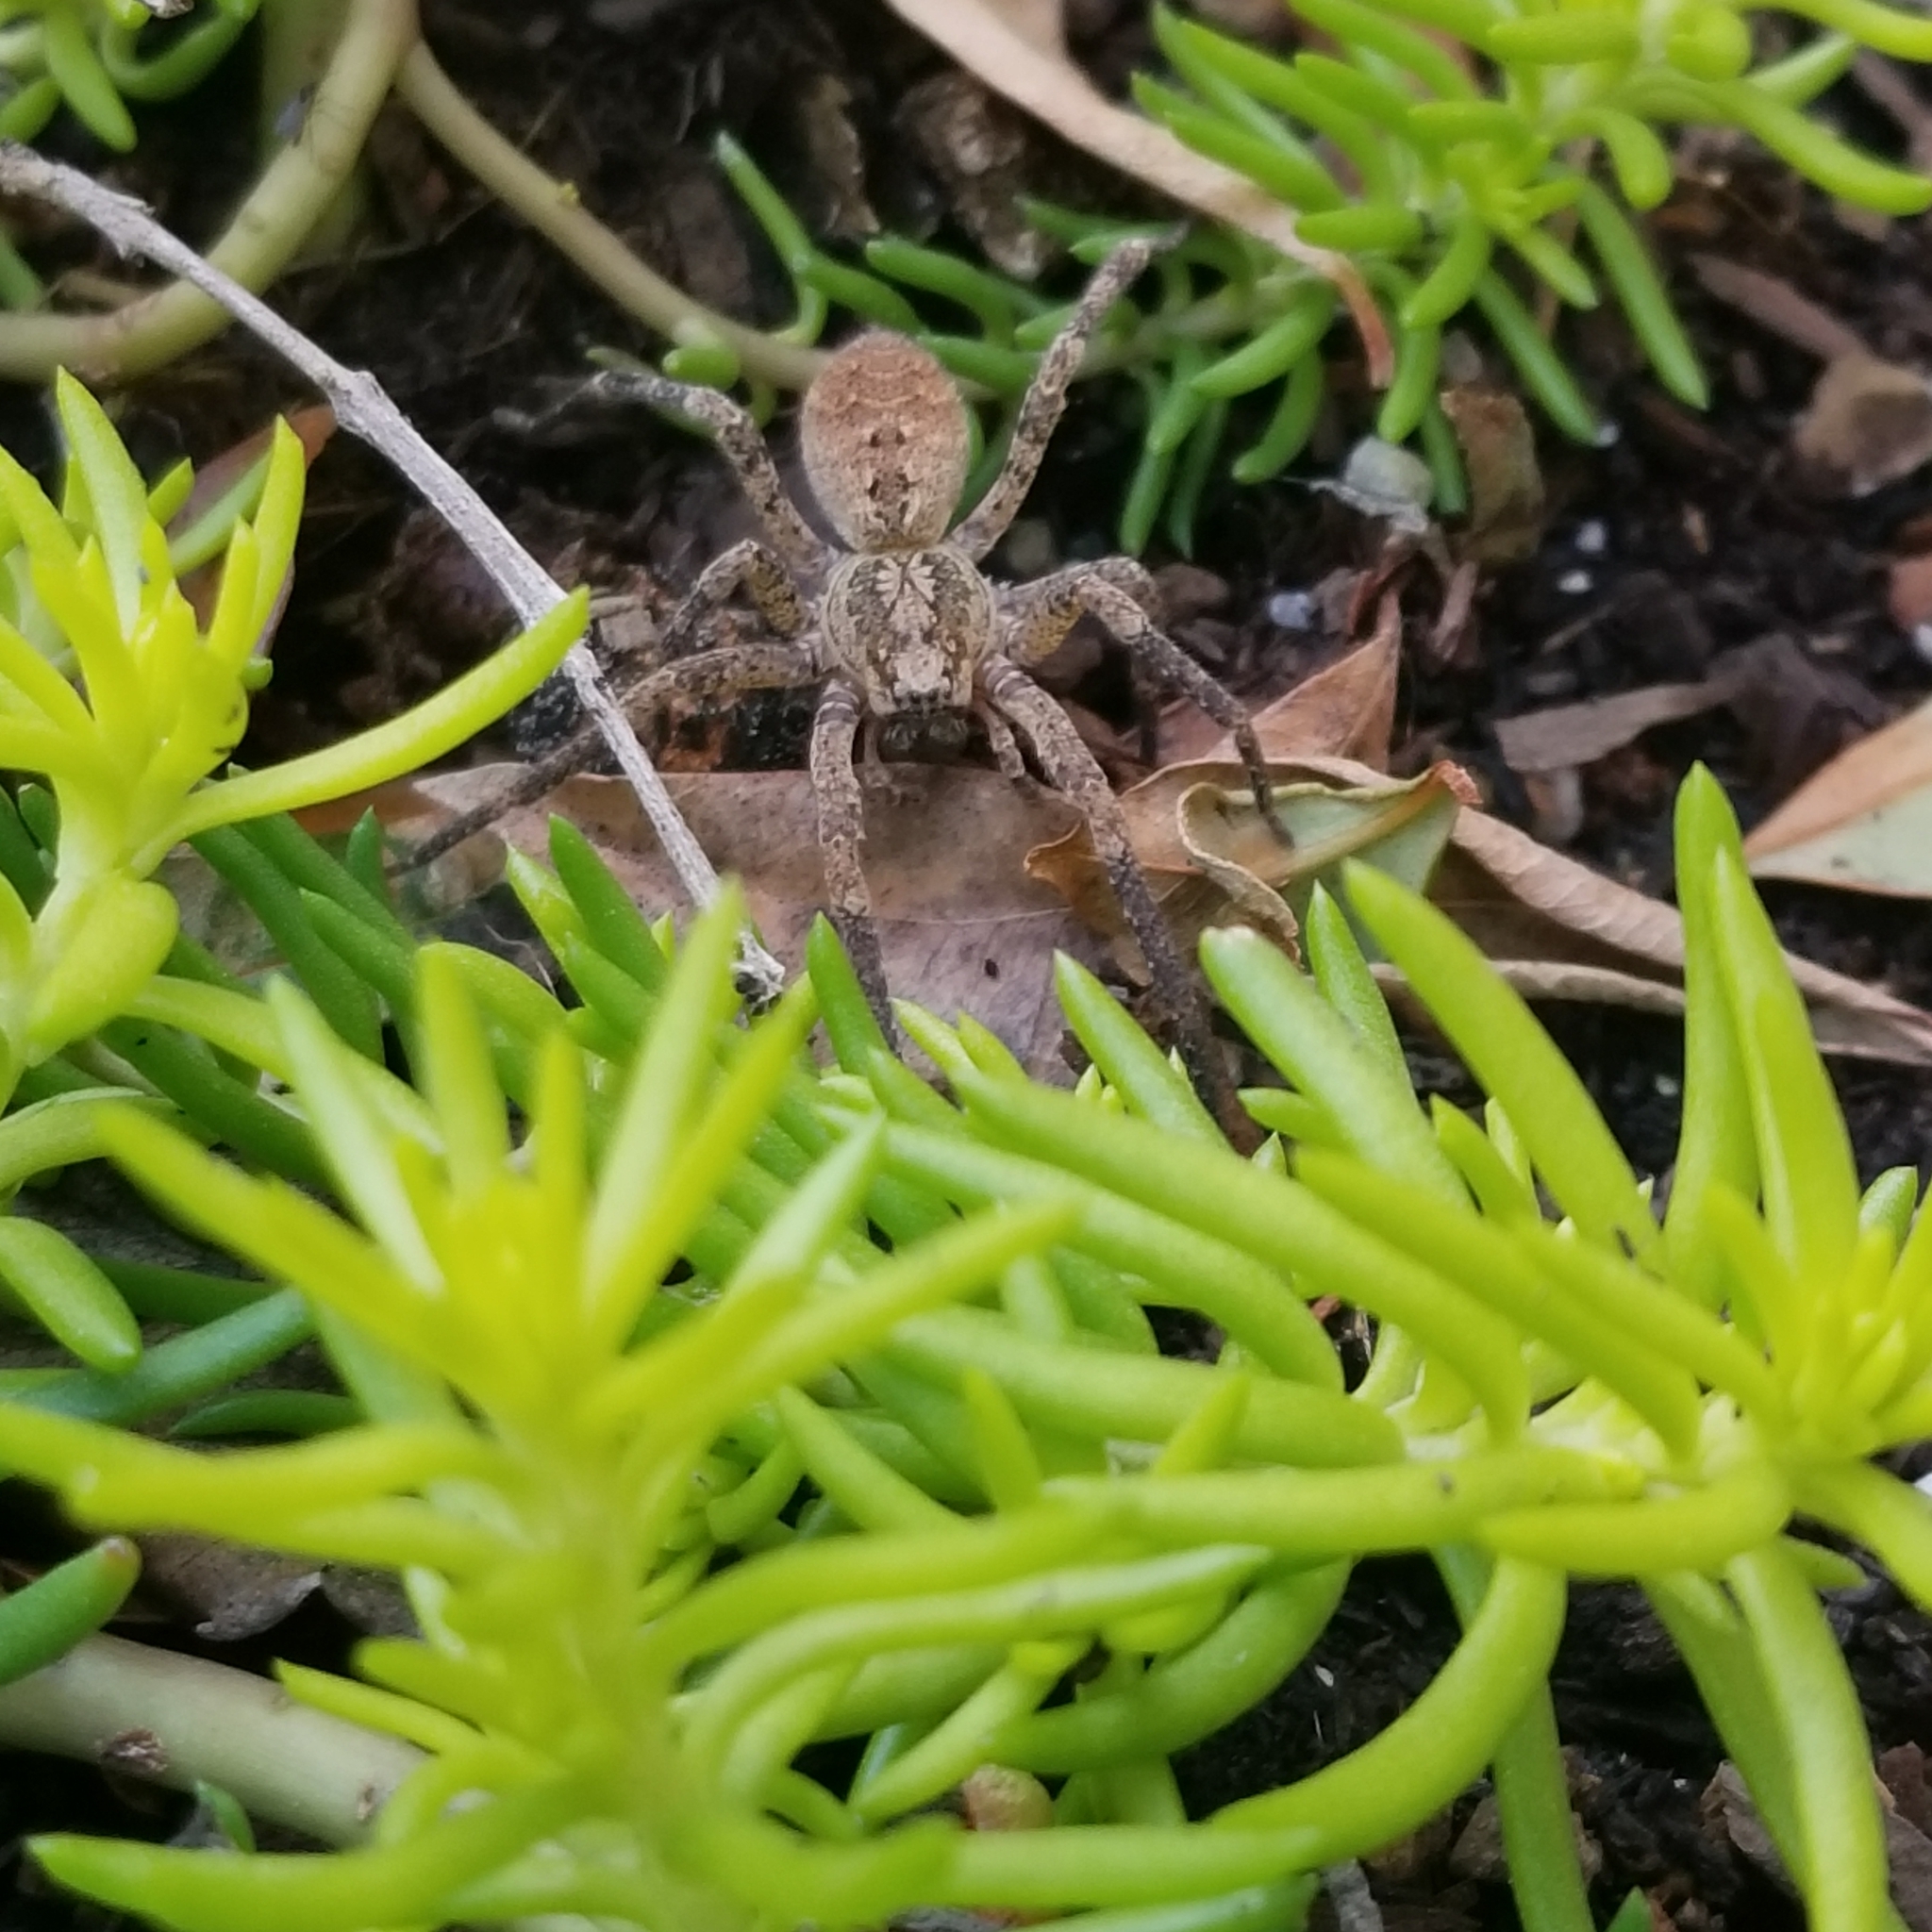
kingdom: Animalia
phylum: Arthropoda
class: Arachnida
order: Araneae
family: Zoropsidae
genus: Zoropsis
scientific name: Zoropsis spinimana
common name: Zoropsid spider
